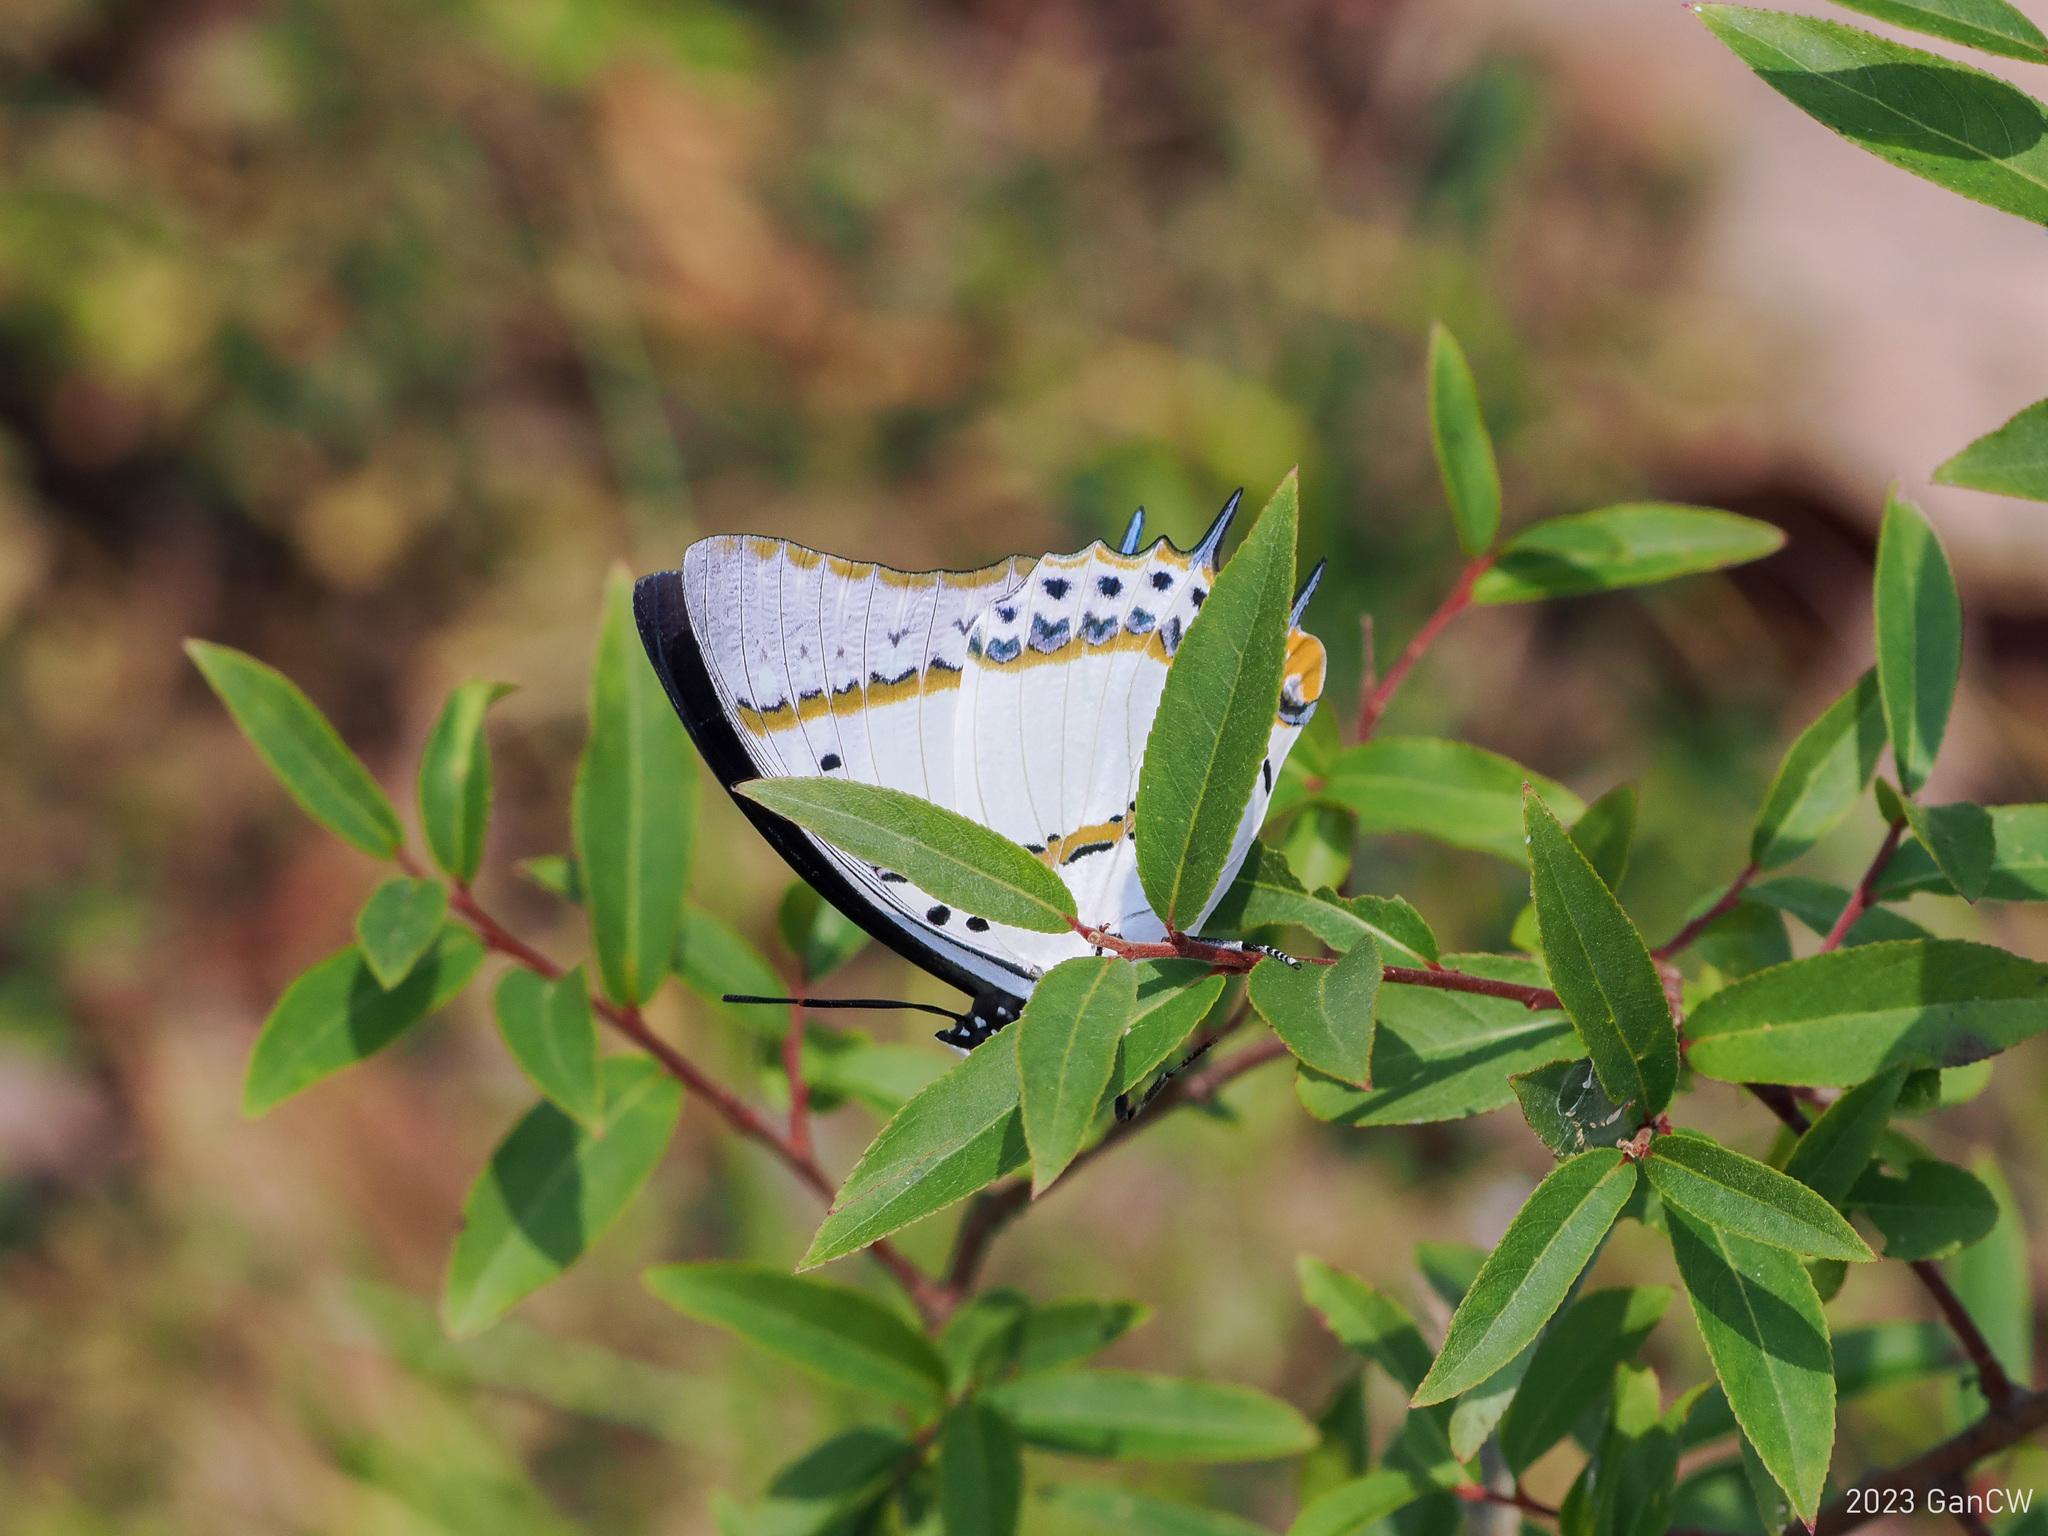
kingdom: Animalia
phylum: Arthropoda
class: Insecta
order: Lepidoptera
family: Nymphalidae
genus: Polyura
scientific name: Polyura nepenthes
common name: Shan nawab
